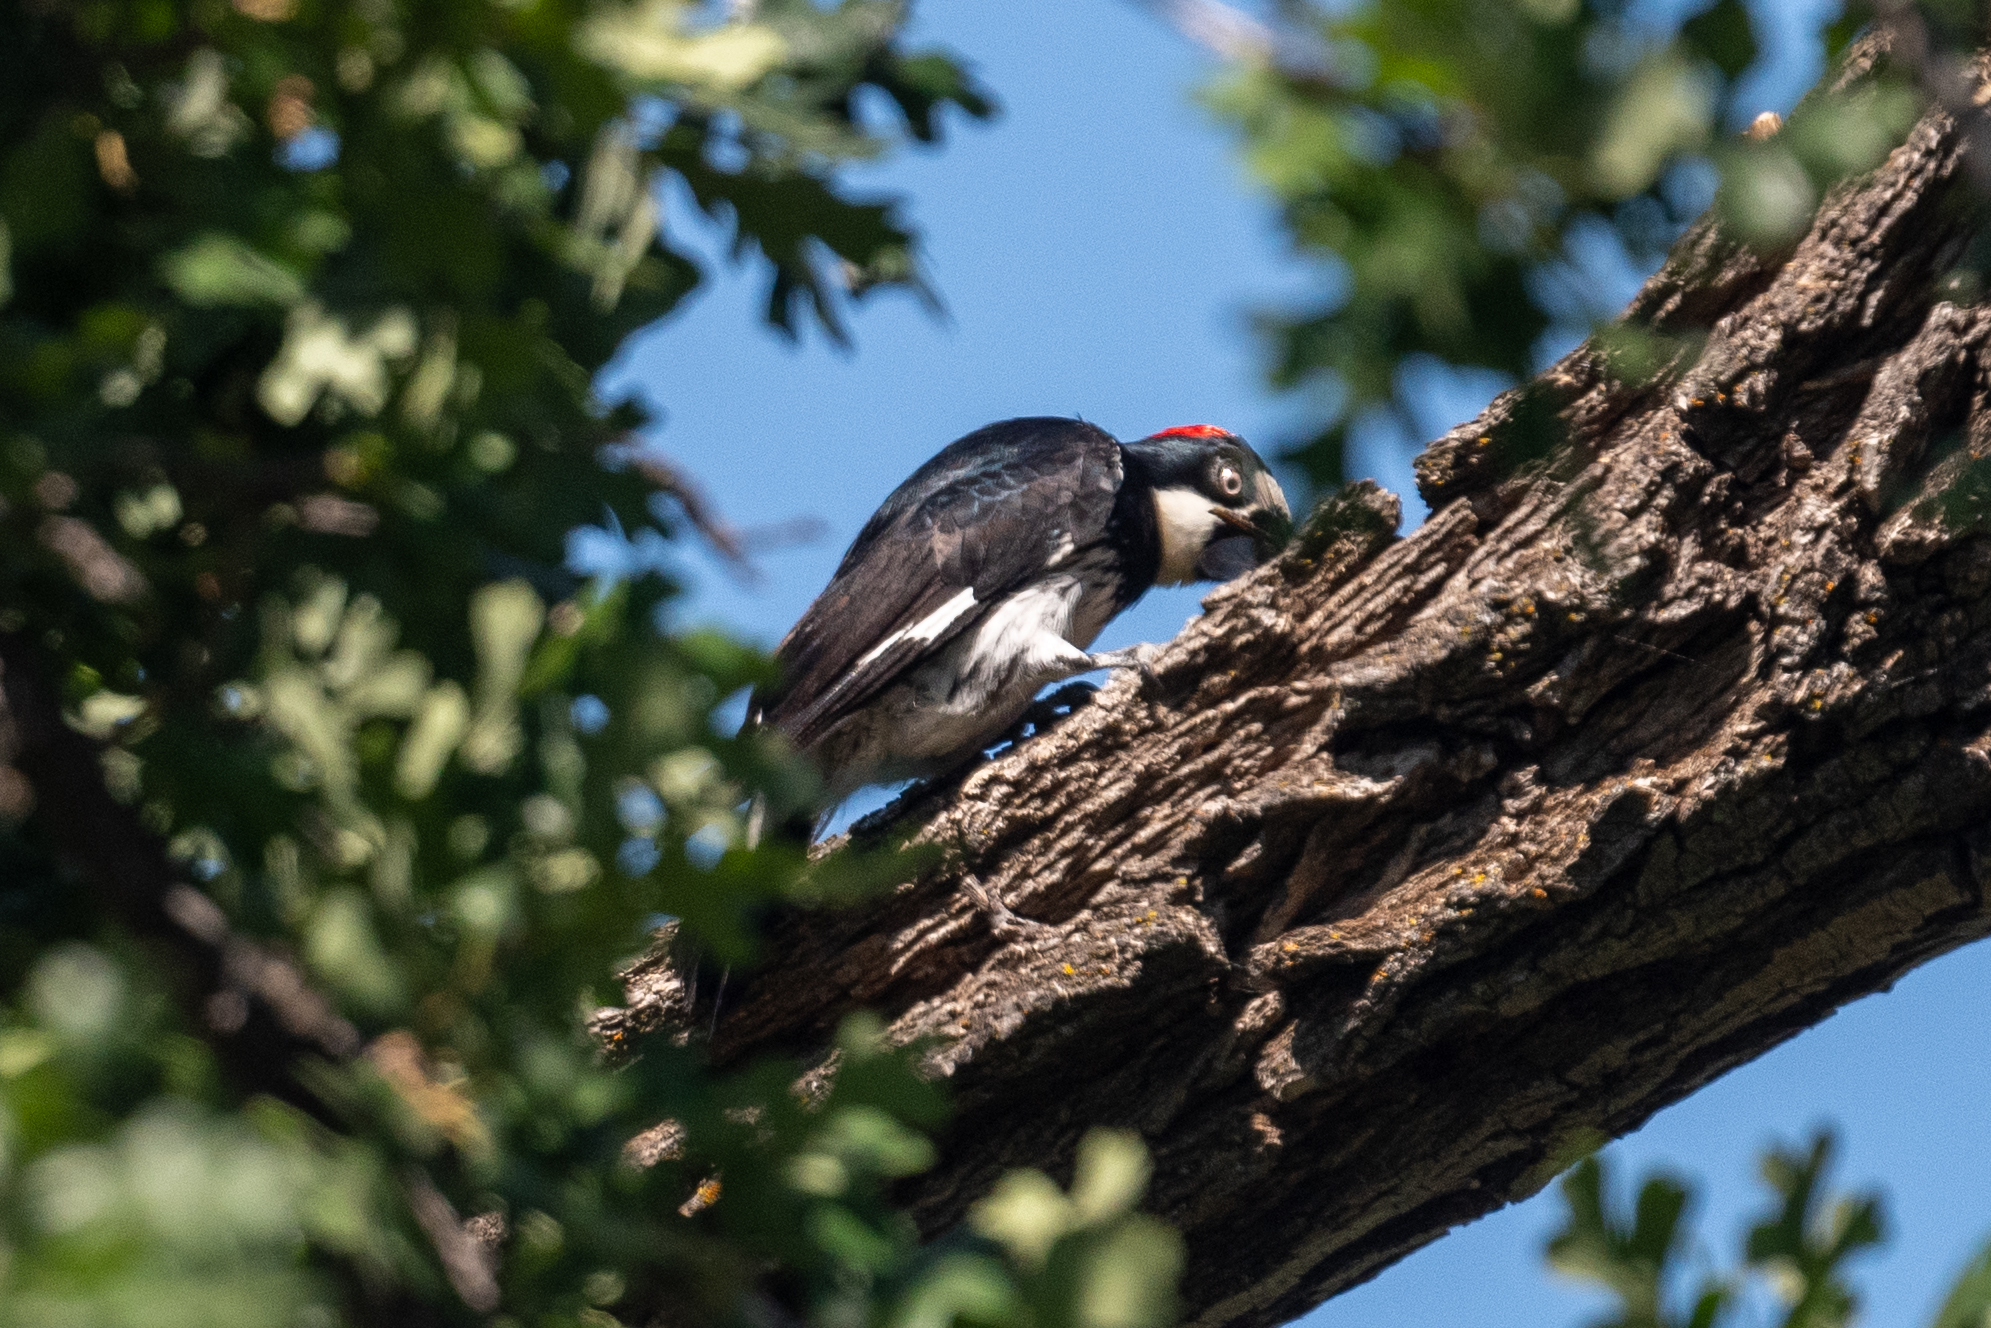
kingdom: Animalia
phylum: Chordata
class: Aves
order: Piciformes
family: Picidae
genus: Melanerpes
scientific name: Melanerpes formicivorus
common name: Acorn woodpecker
